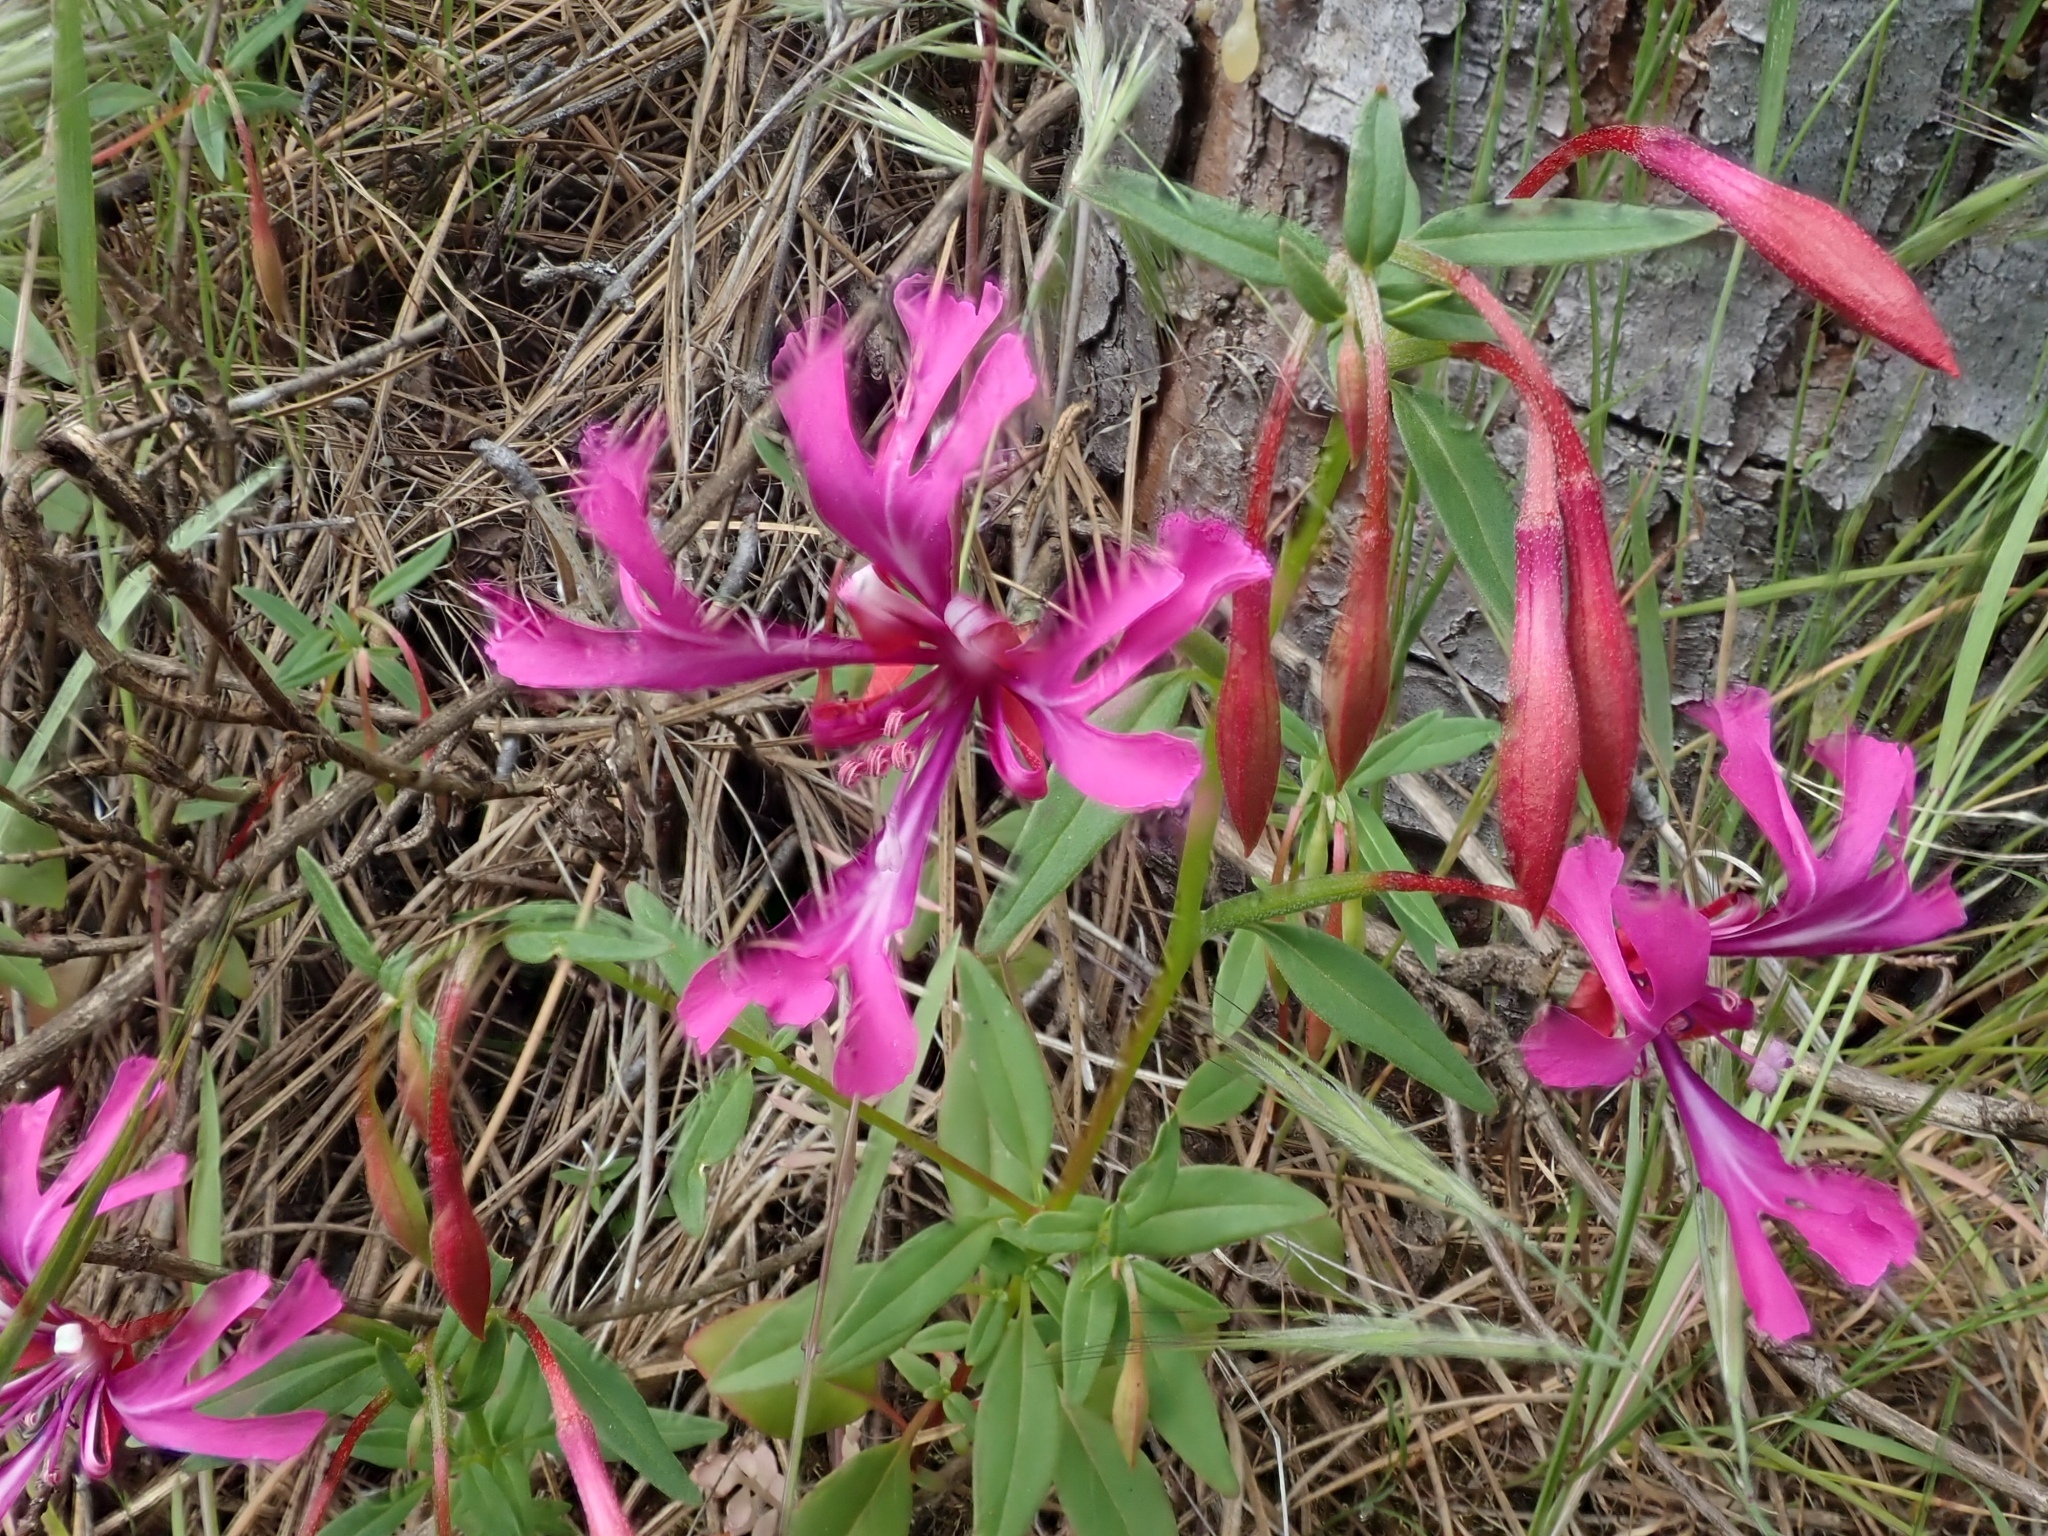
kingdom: Plantae
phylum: Tracheophyta
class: Magnoliopsida
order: Myrtales
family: Onagraceae
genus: Clarkia
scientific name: Clarkia concinna
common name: Red-ribbons
